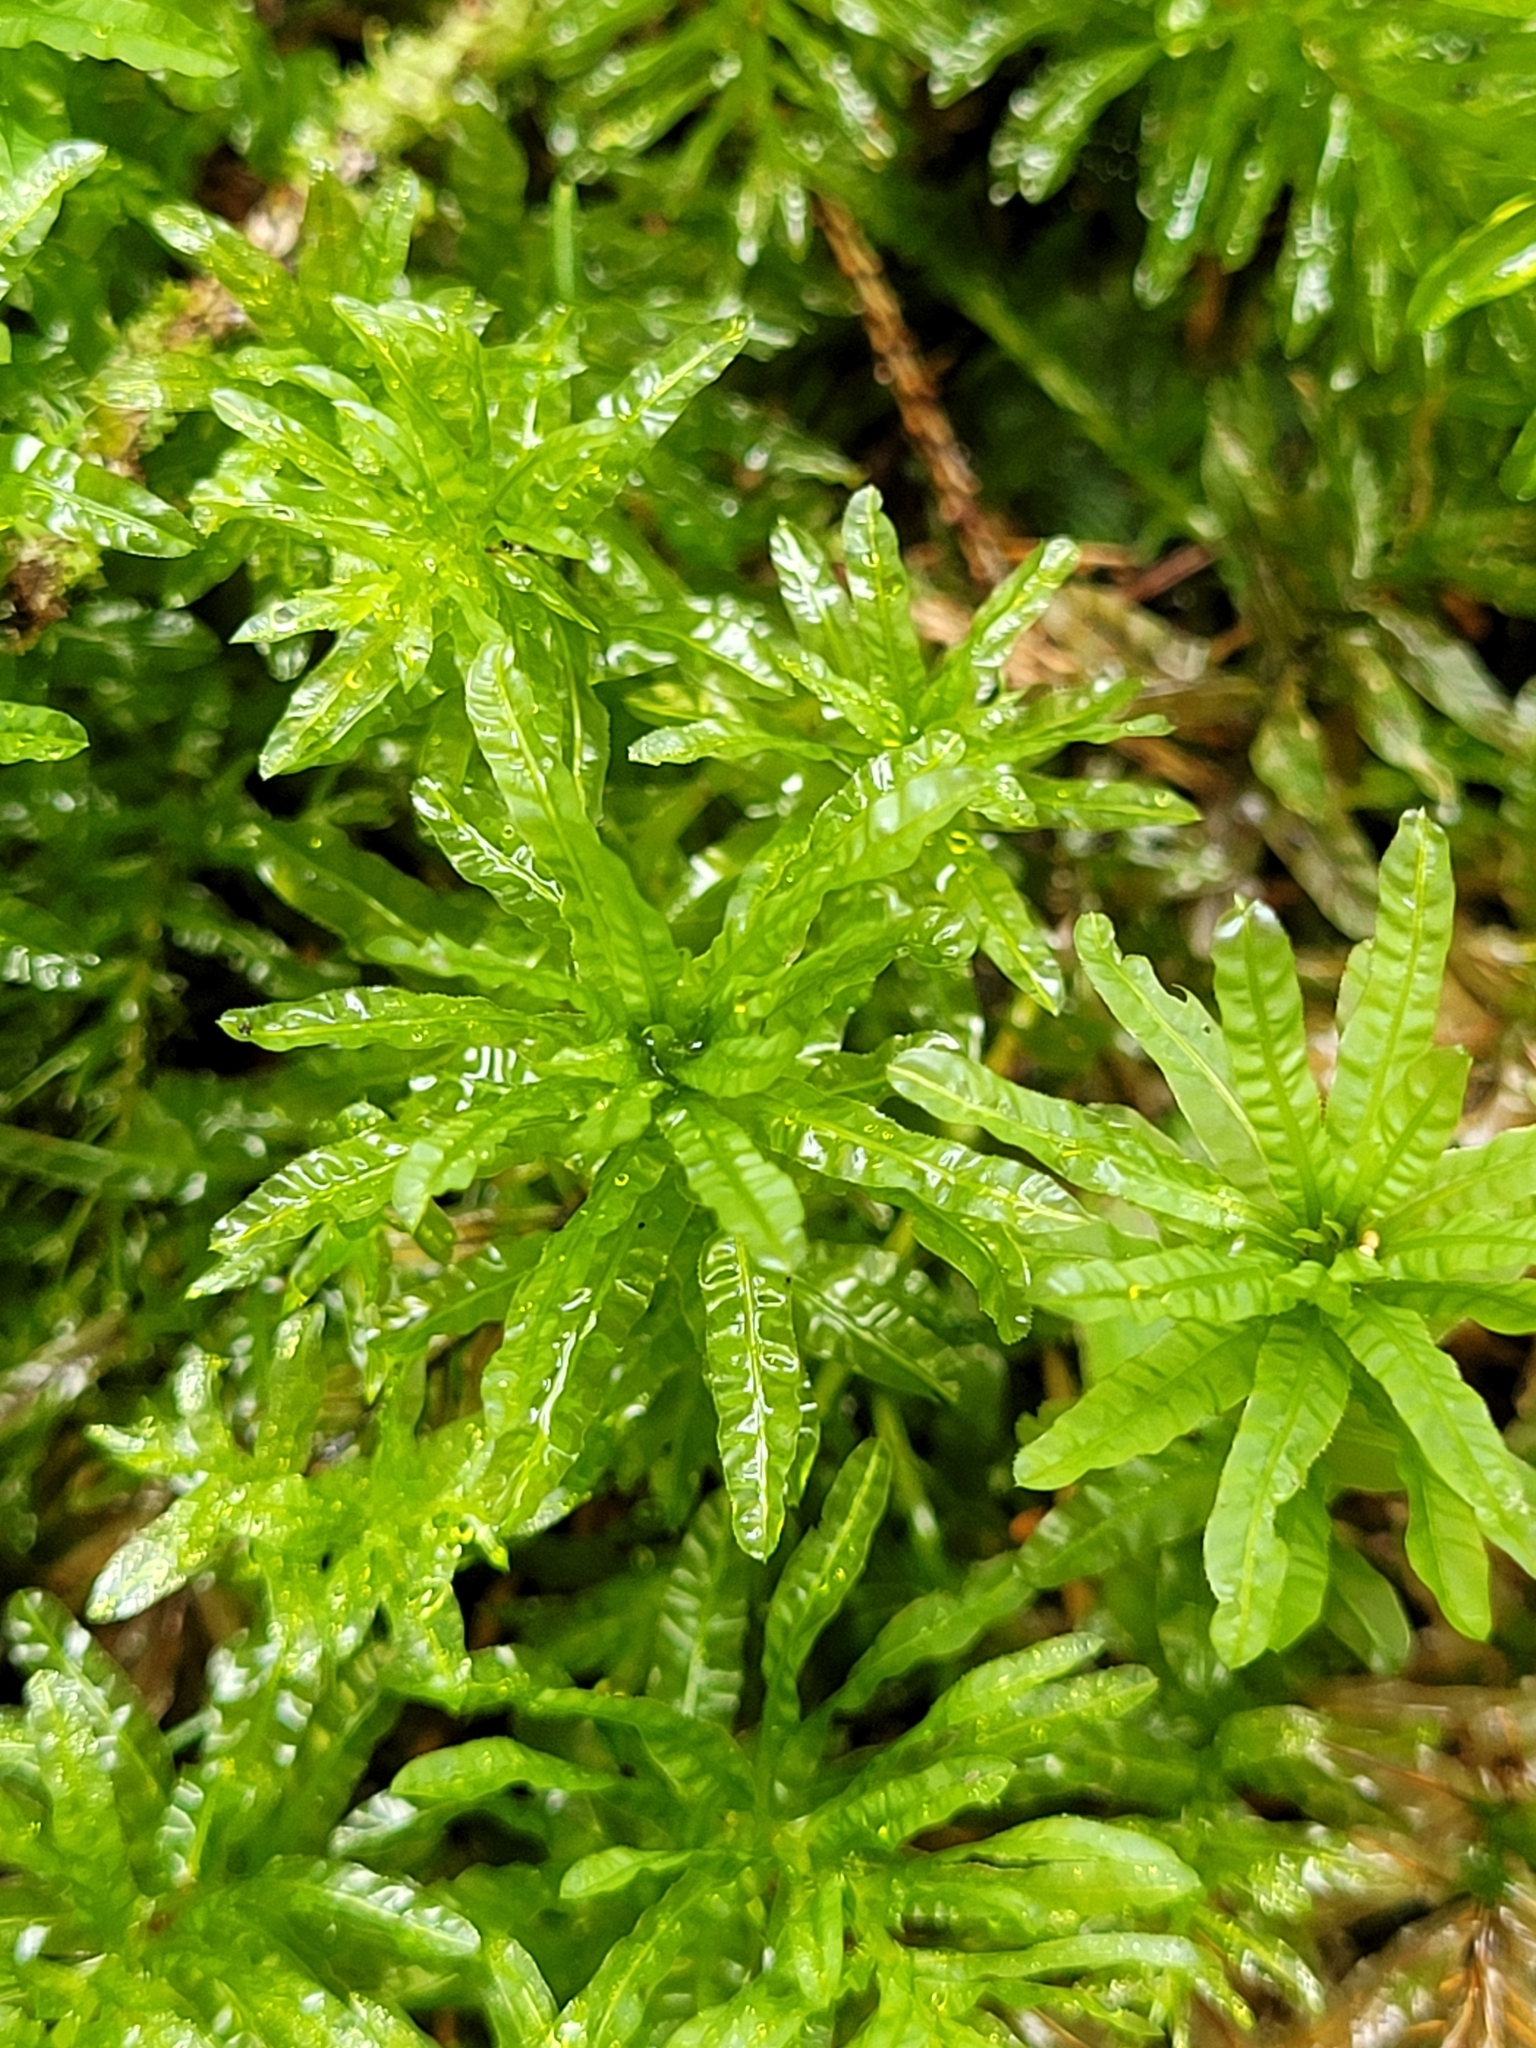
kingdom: Plantae
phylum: Bryophyta
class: Bryopsida
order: Bryales
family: Mniaceae
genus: Plagiomnium
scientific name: Plagiomnium undulatum
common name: Hart's-tongue thyme-moss
